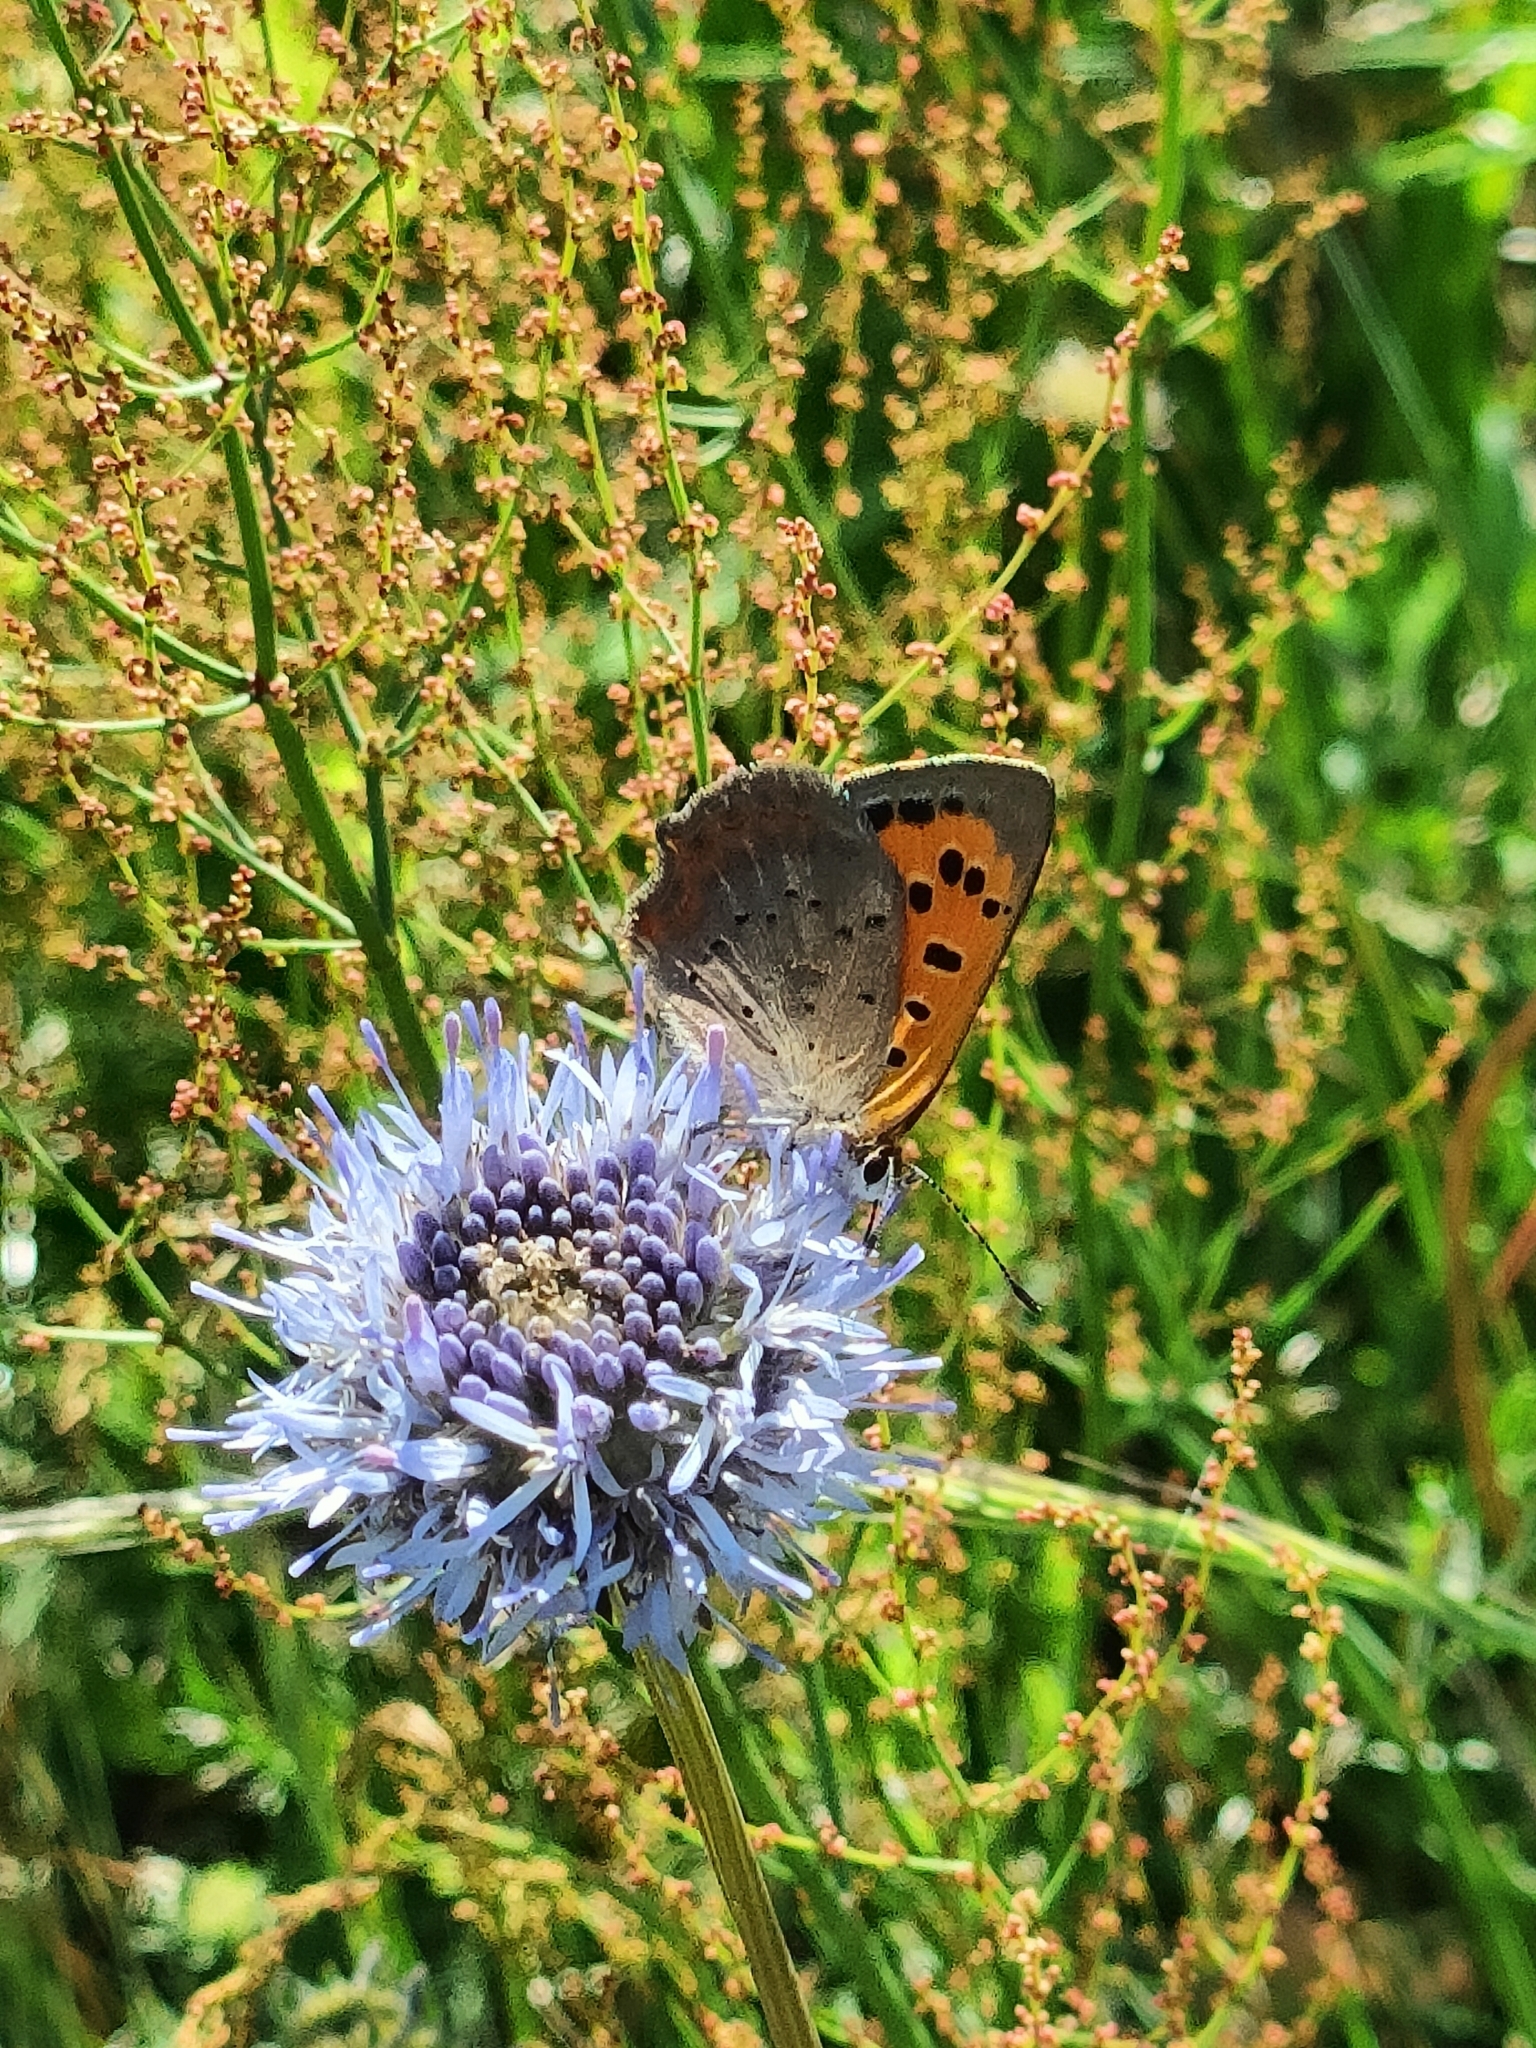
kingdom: Animalia
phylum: Arthropoda
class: Insecta
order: Lepidoptera
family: Lycaenidae
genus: Lycaena
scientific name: Lycaena phlaeas
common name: Small copper
